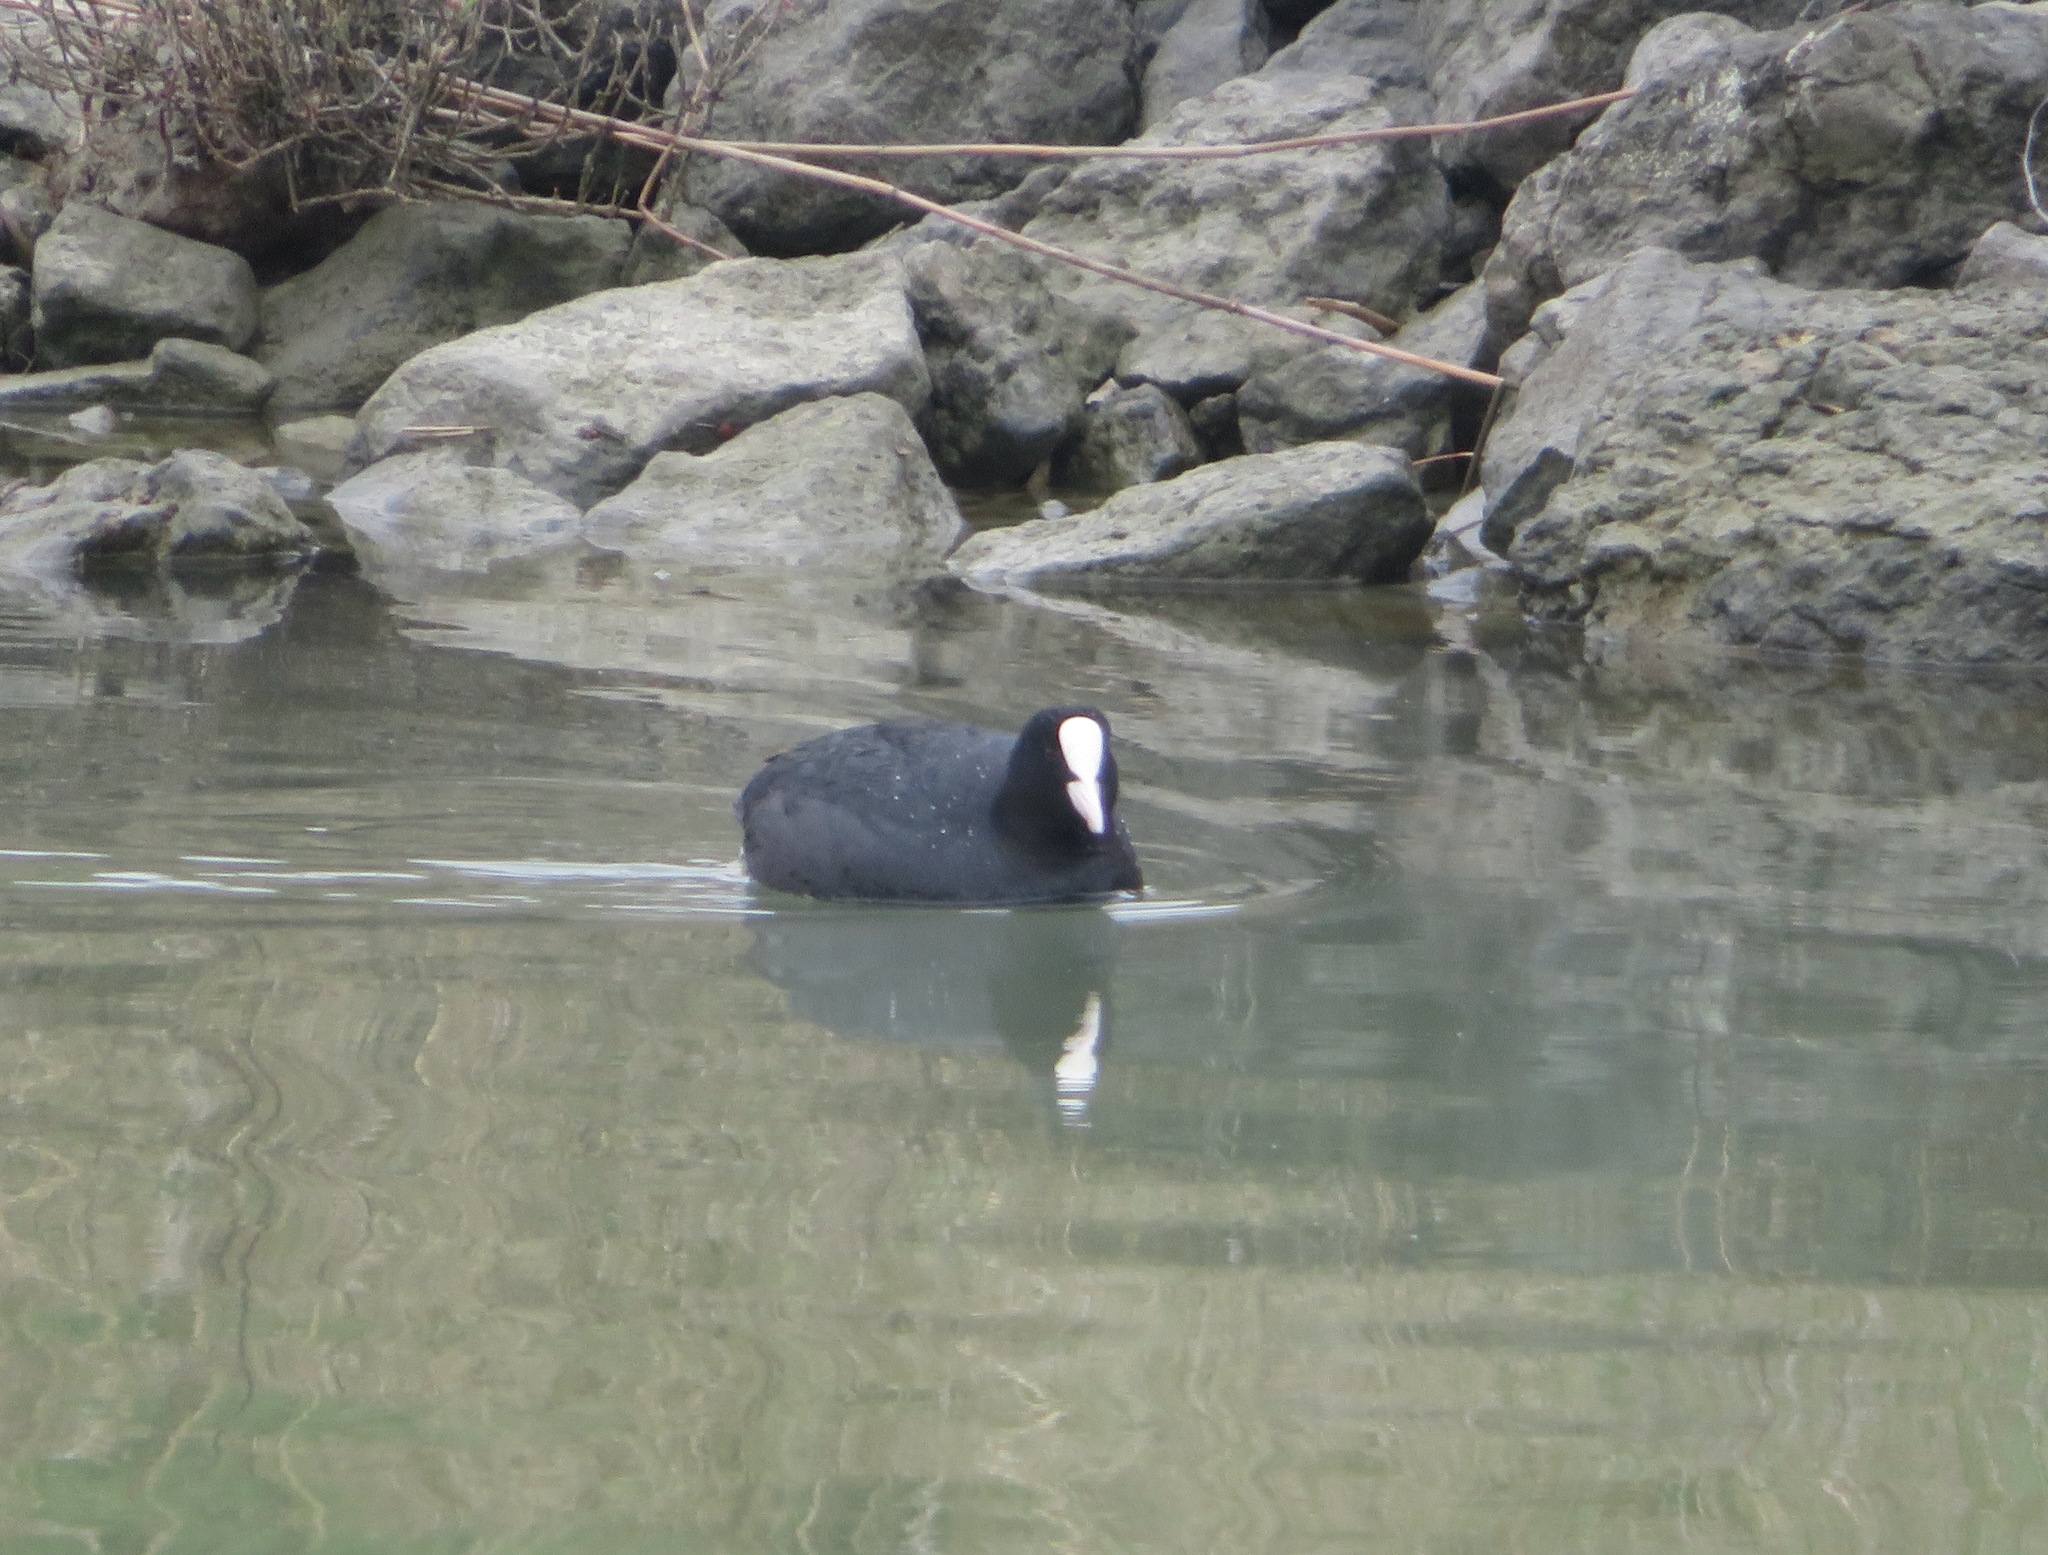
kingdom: Animalia
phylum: Chordata
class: Aves
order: Gruiformes
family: Rallidae
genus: Fulica
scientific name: Fulica atra
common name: Eurasian coot
